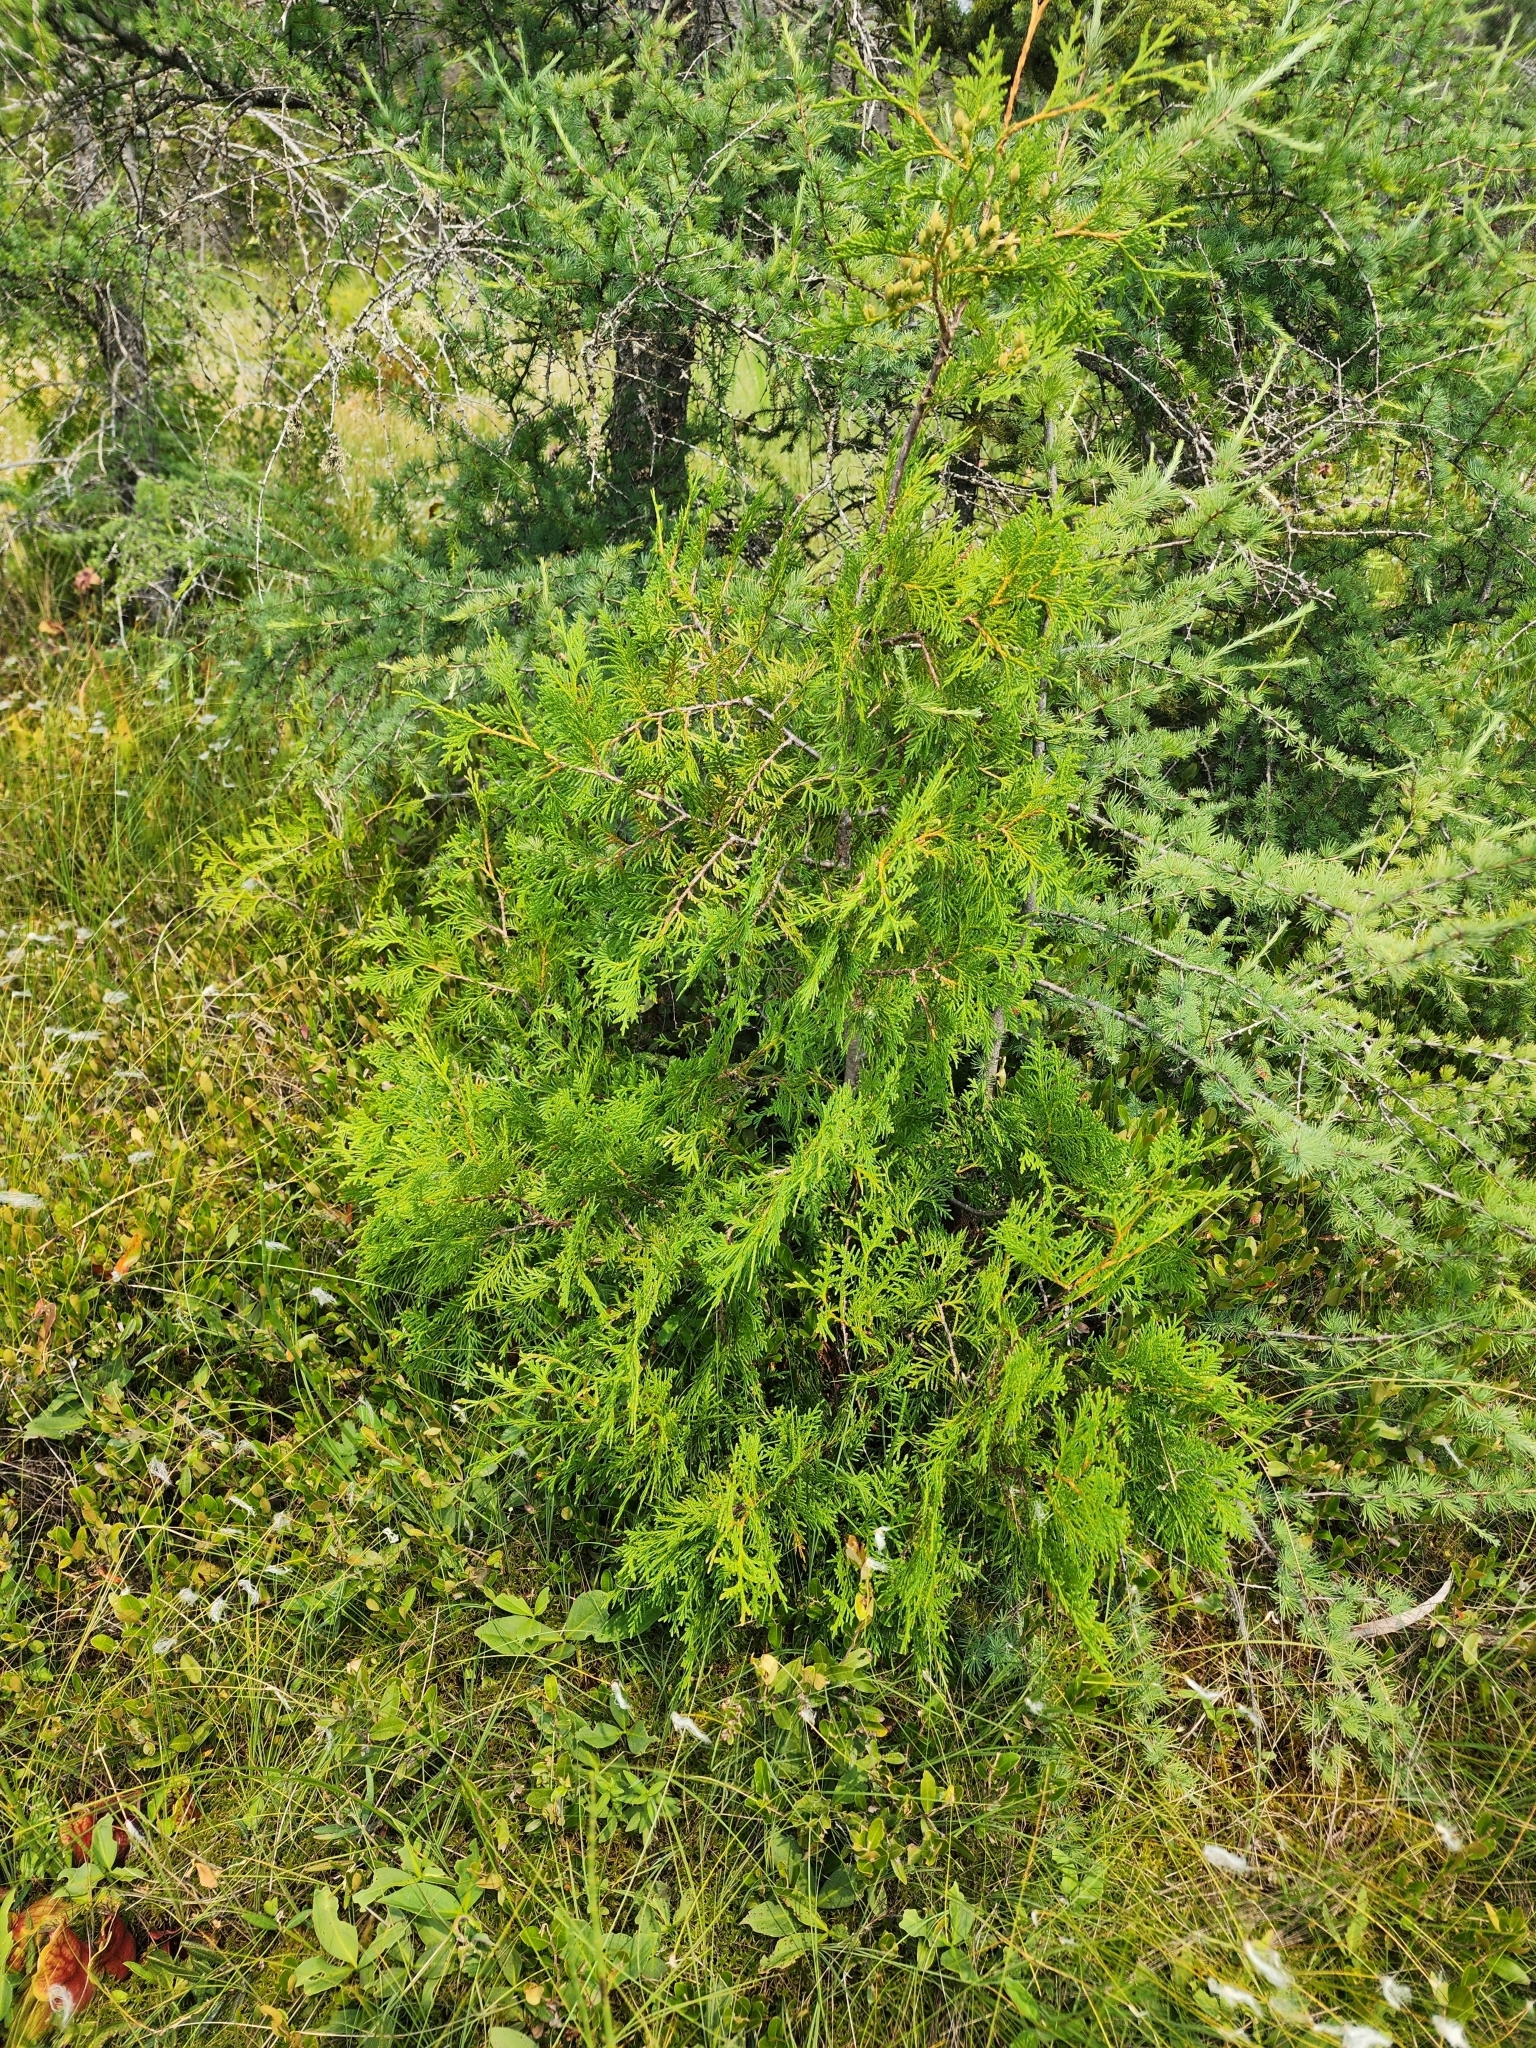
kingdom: Plantae
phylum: Tracheophyta
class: Pinopsida
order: Pinales
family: Cupressaceae
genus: Thuja
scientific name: Thuja occidentalis
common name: Northern white-cedar
